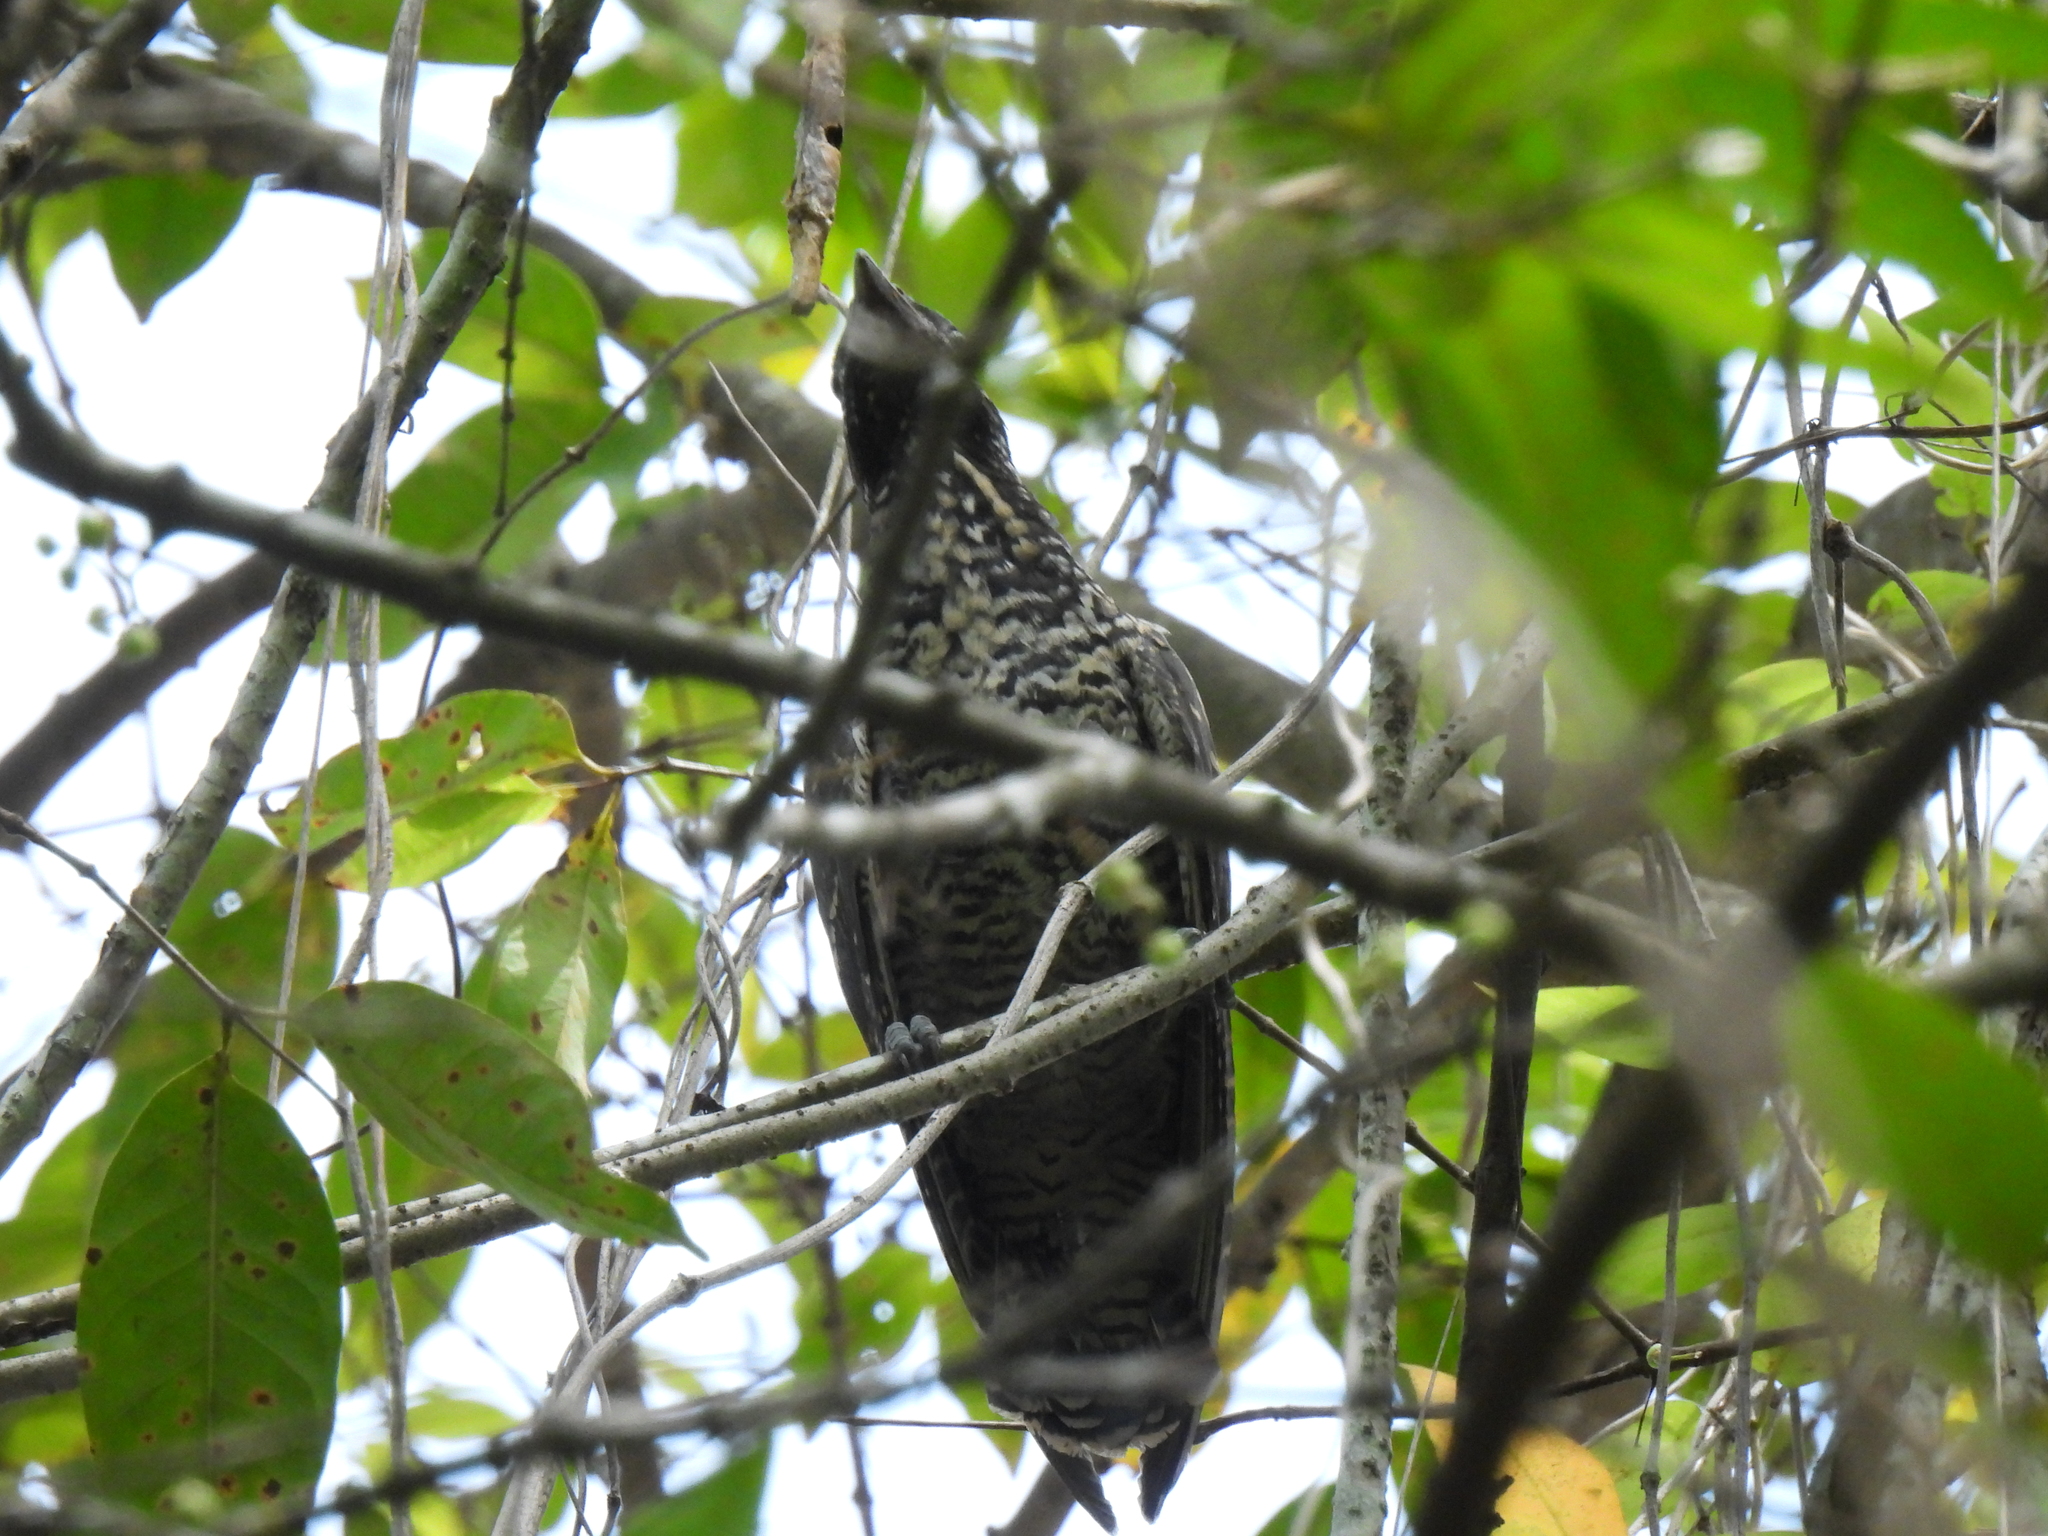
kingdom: Animalia
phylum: Chordata
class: Aves
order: Cuculiformes
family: Cuculidae
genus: Eudynamys
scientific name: Eudynamys scolopaceus
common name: Asian koel
